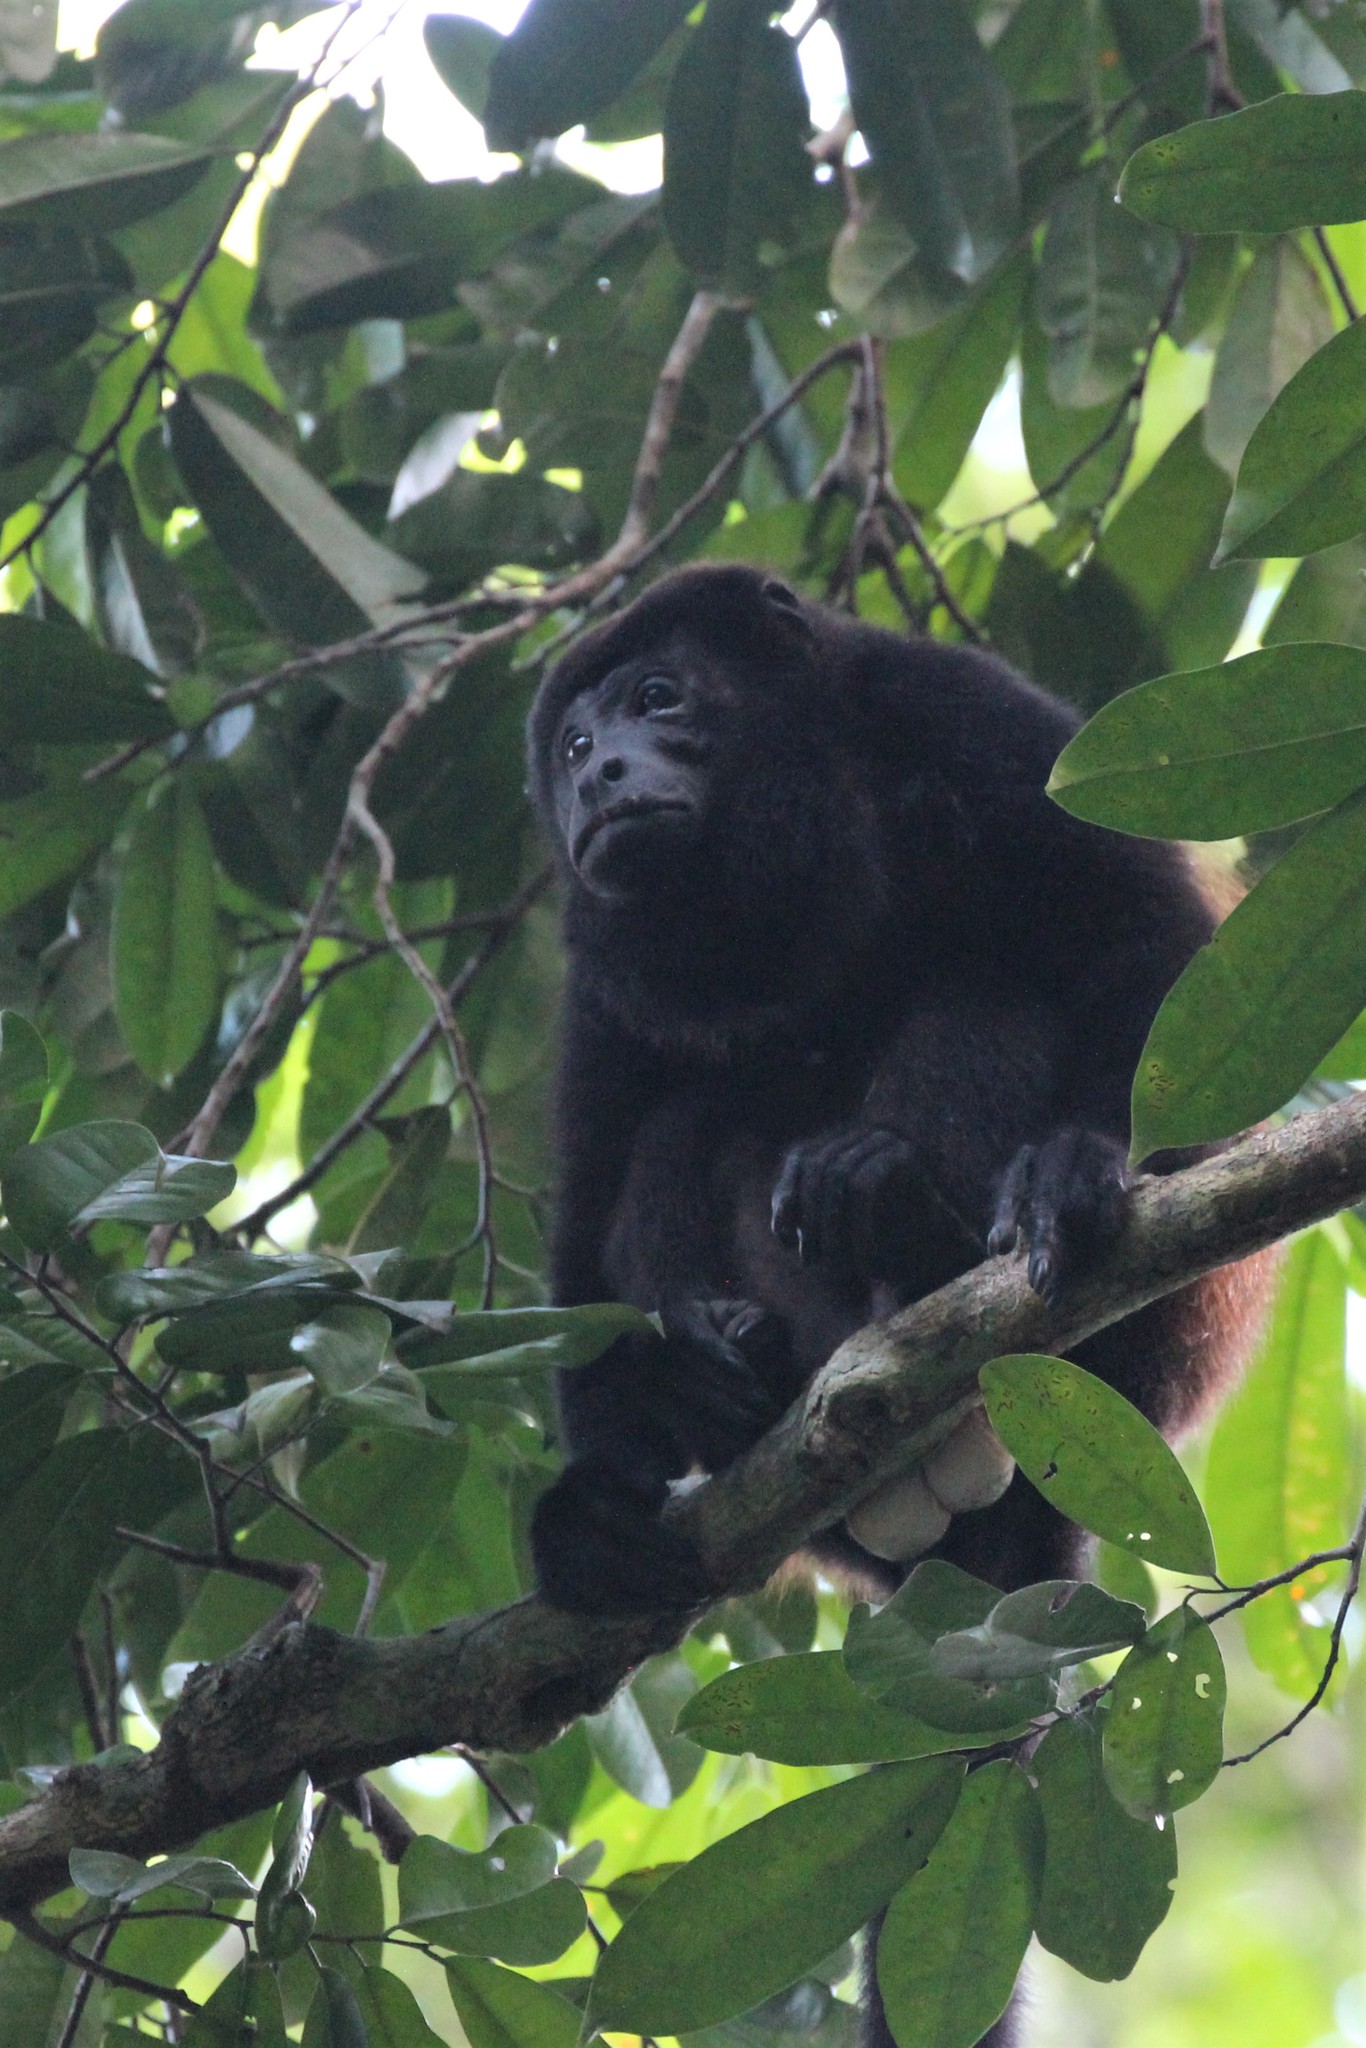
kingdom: Animalia
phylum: Chordata
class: Mammalia
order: Primates
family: Atelidae
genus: Alouatta
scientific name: Alouatta palliata
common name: Mantled howler
